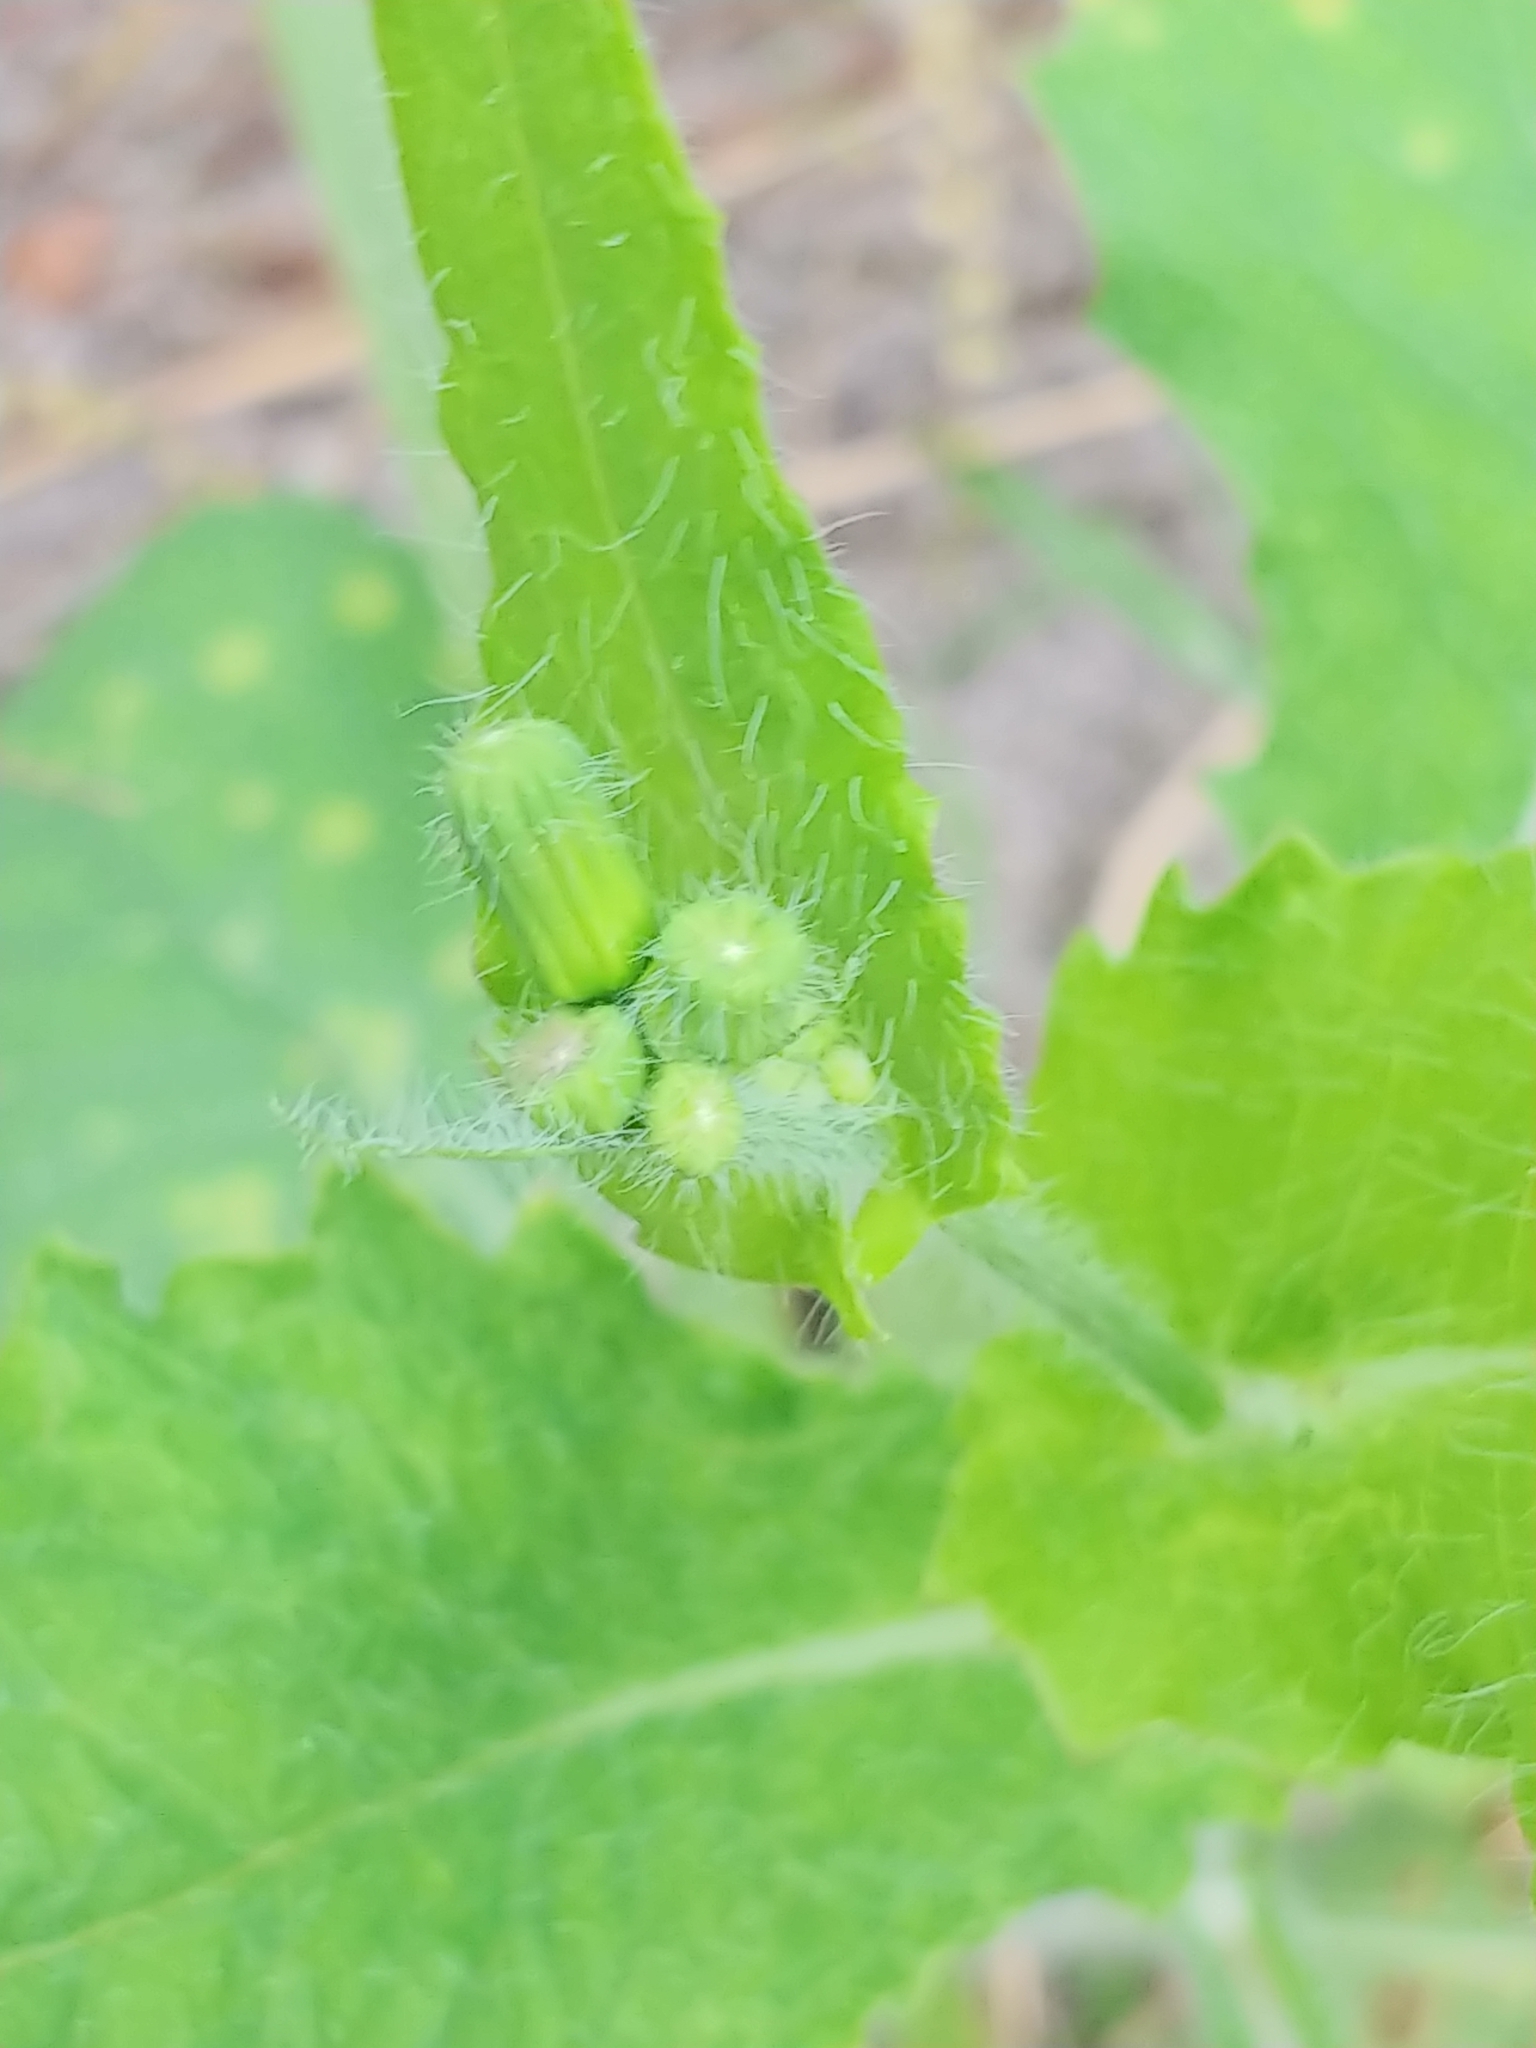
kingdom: Plantae
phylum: Tracheophyta
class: Magnoliopsida
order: Asterales
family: Asteraceae
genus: Erechtites
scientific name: Erechtites hieraciifolius
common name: American burnweed
